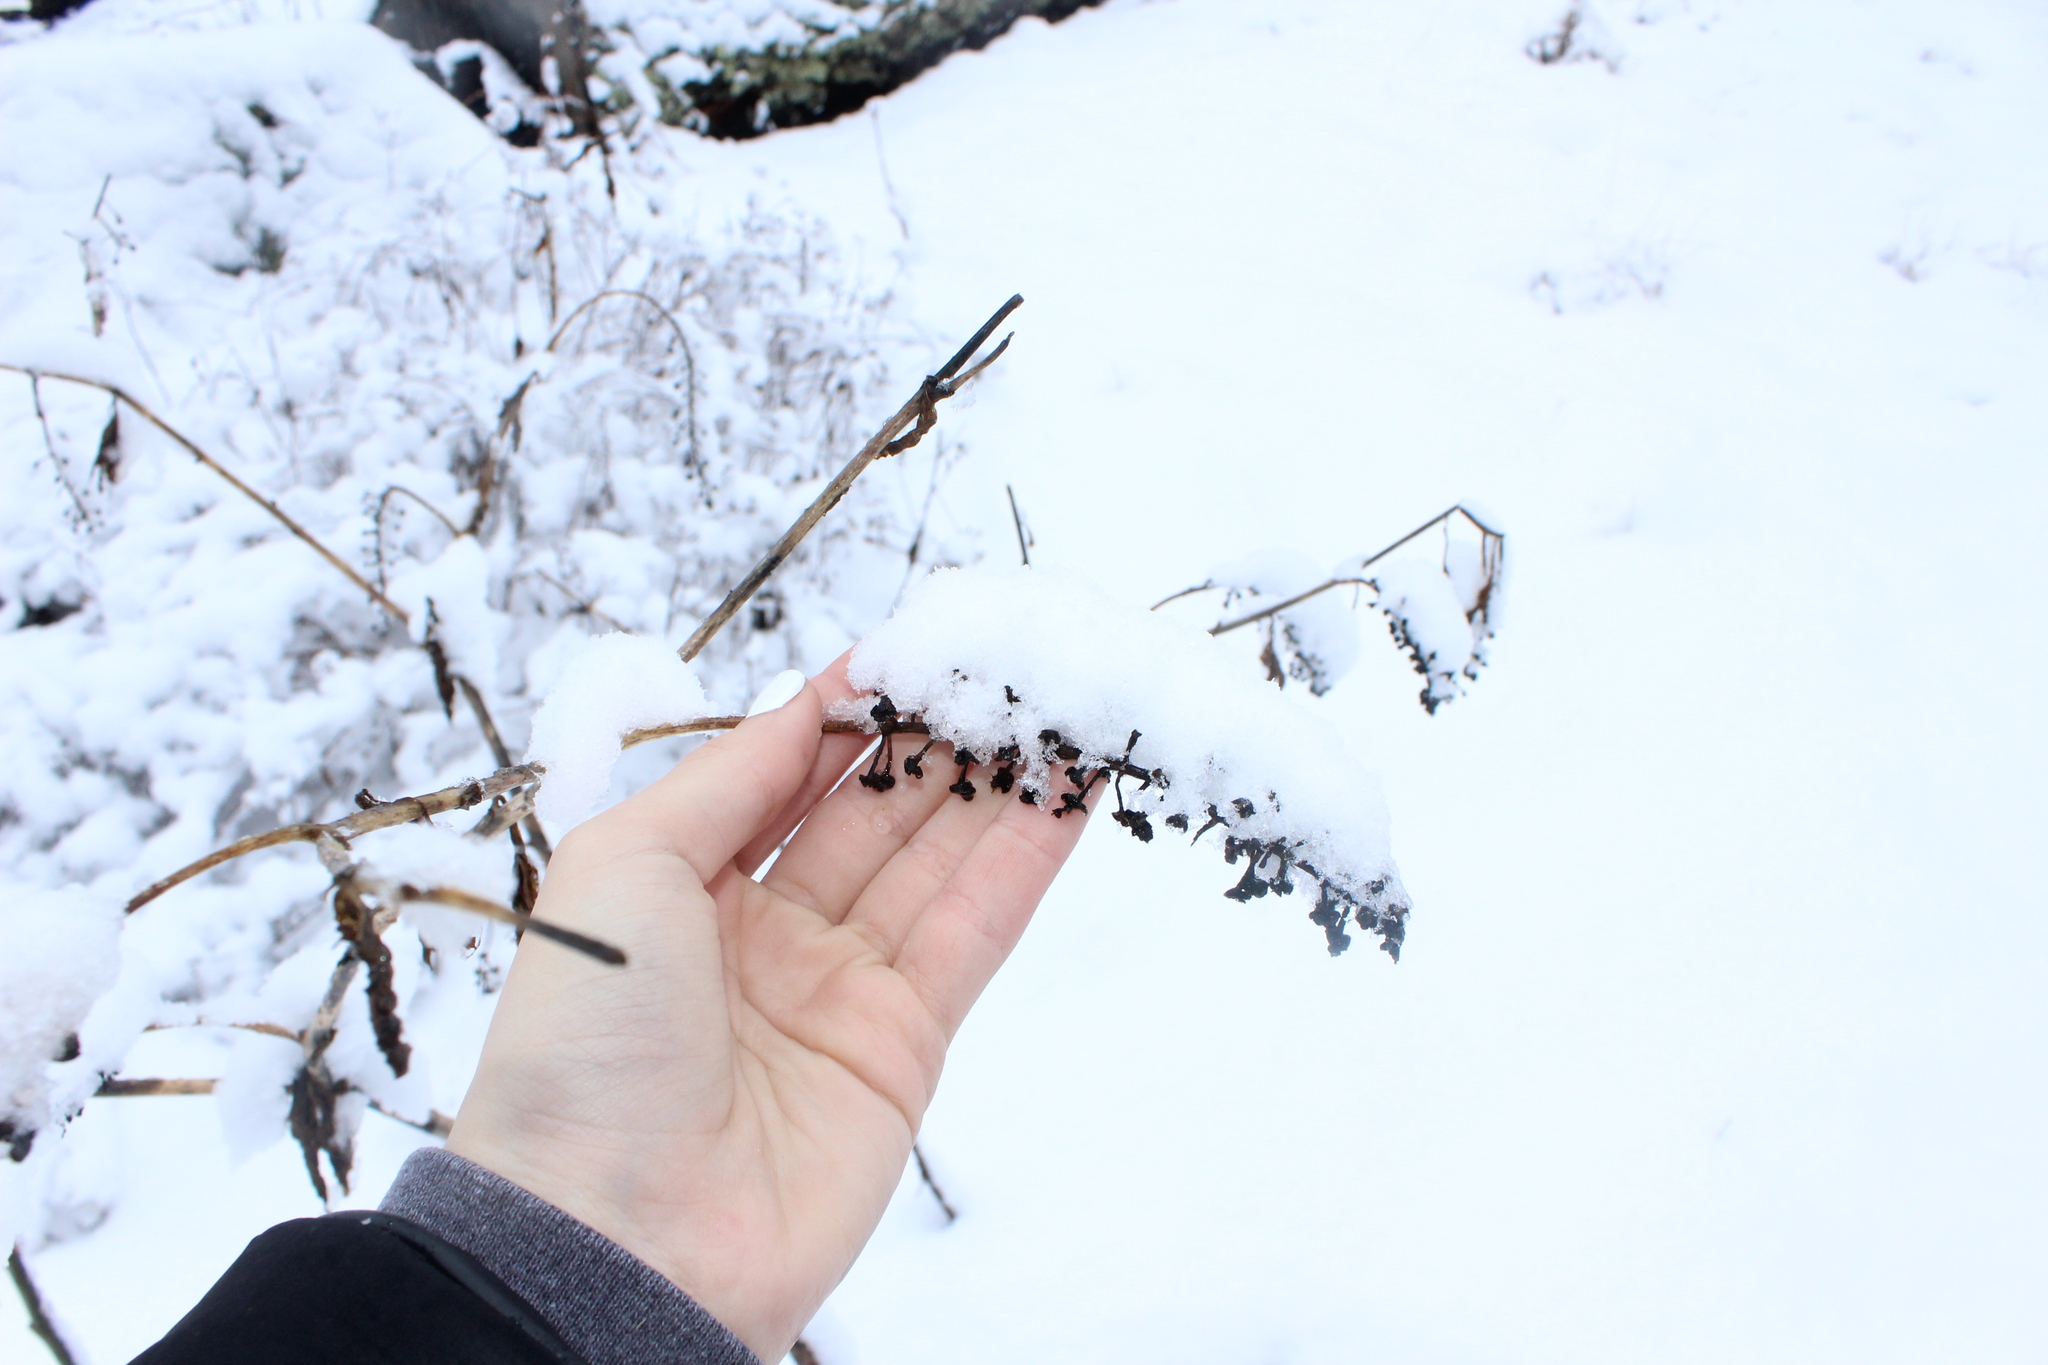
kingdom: Plantae
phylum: Tracheophyta
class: Magnoliopsida
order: Caryophyllales
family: Phytolaccaceae
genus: Phytolacca
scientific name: Phytolacca americana
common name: American pokeweed
